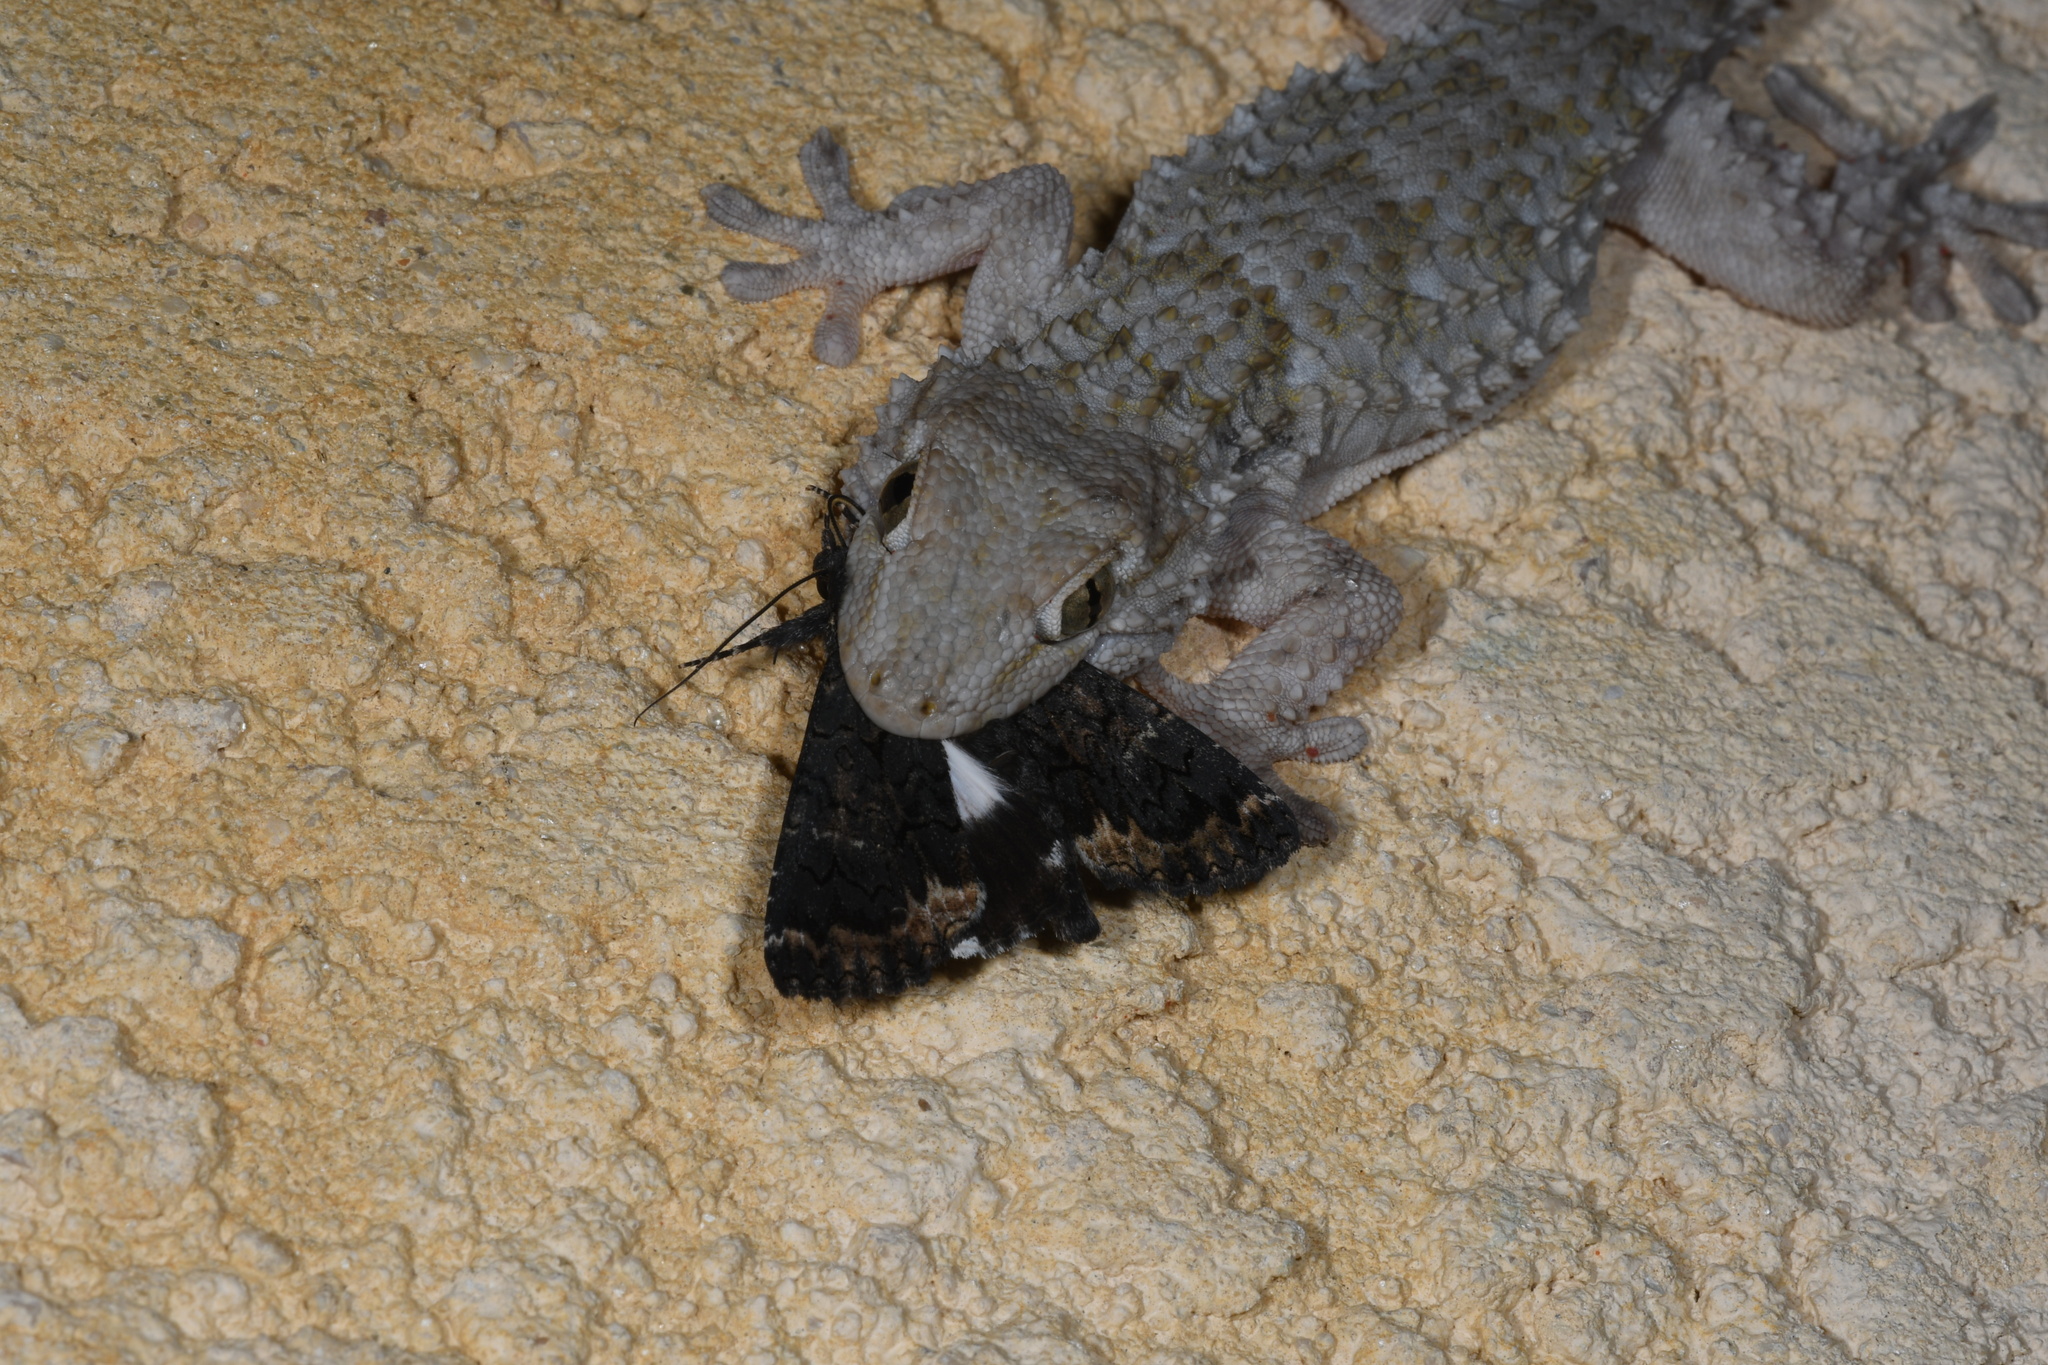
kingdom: Animalia
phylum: Arthropoda
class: Insecta
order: Lepidoptera
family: Erebidae
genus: Catephia
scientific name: Catephia alchymista
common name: Alchymist
